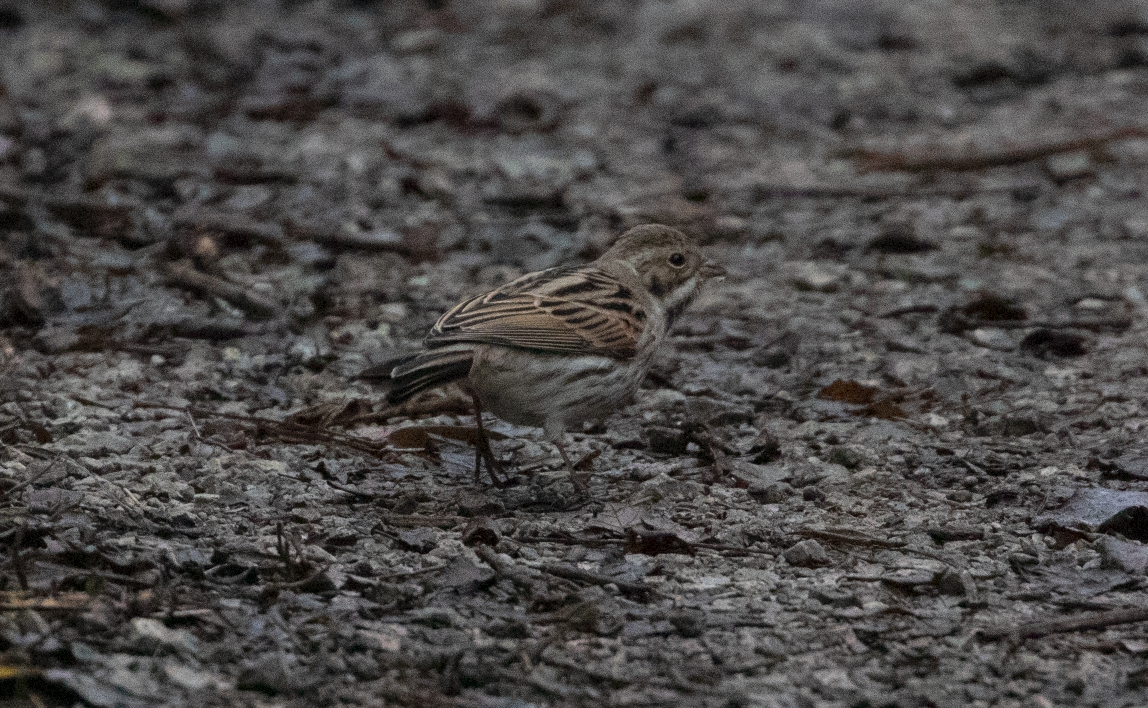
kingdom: Animalia
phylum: Chordata
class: Aves
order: Passeriformes
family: Emberizidae
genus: Emberiza
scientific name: Emberiza schoeniclus
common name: Reed bunting
